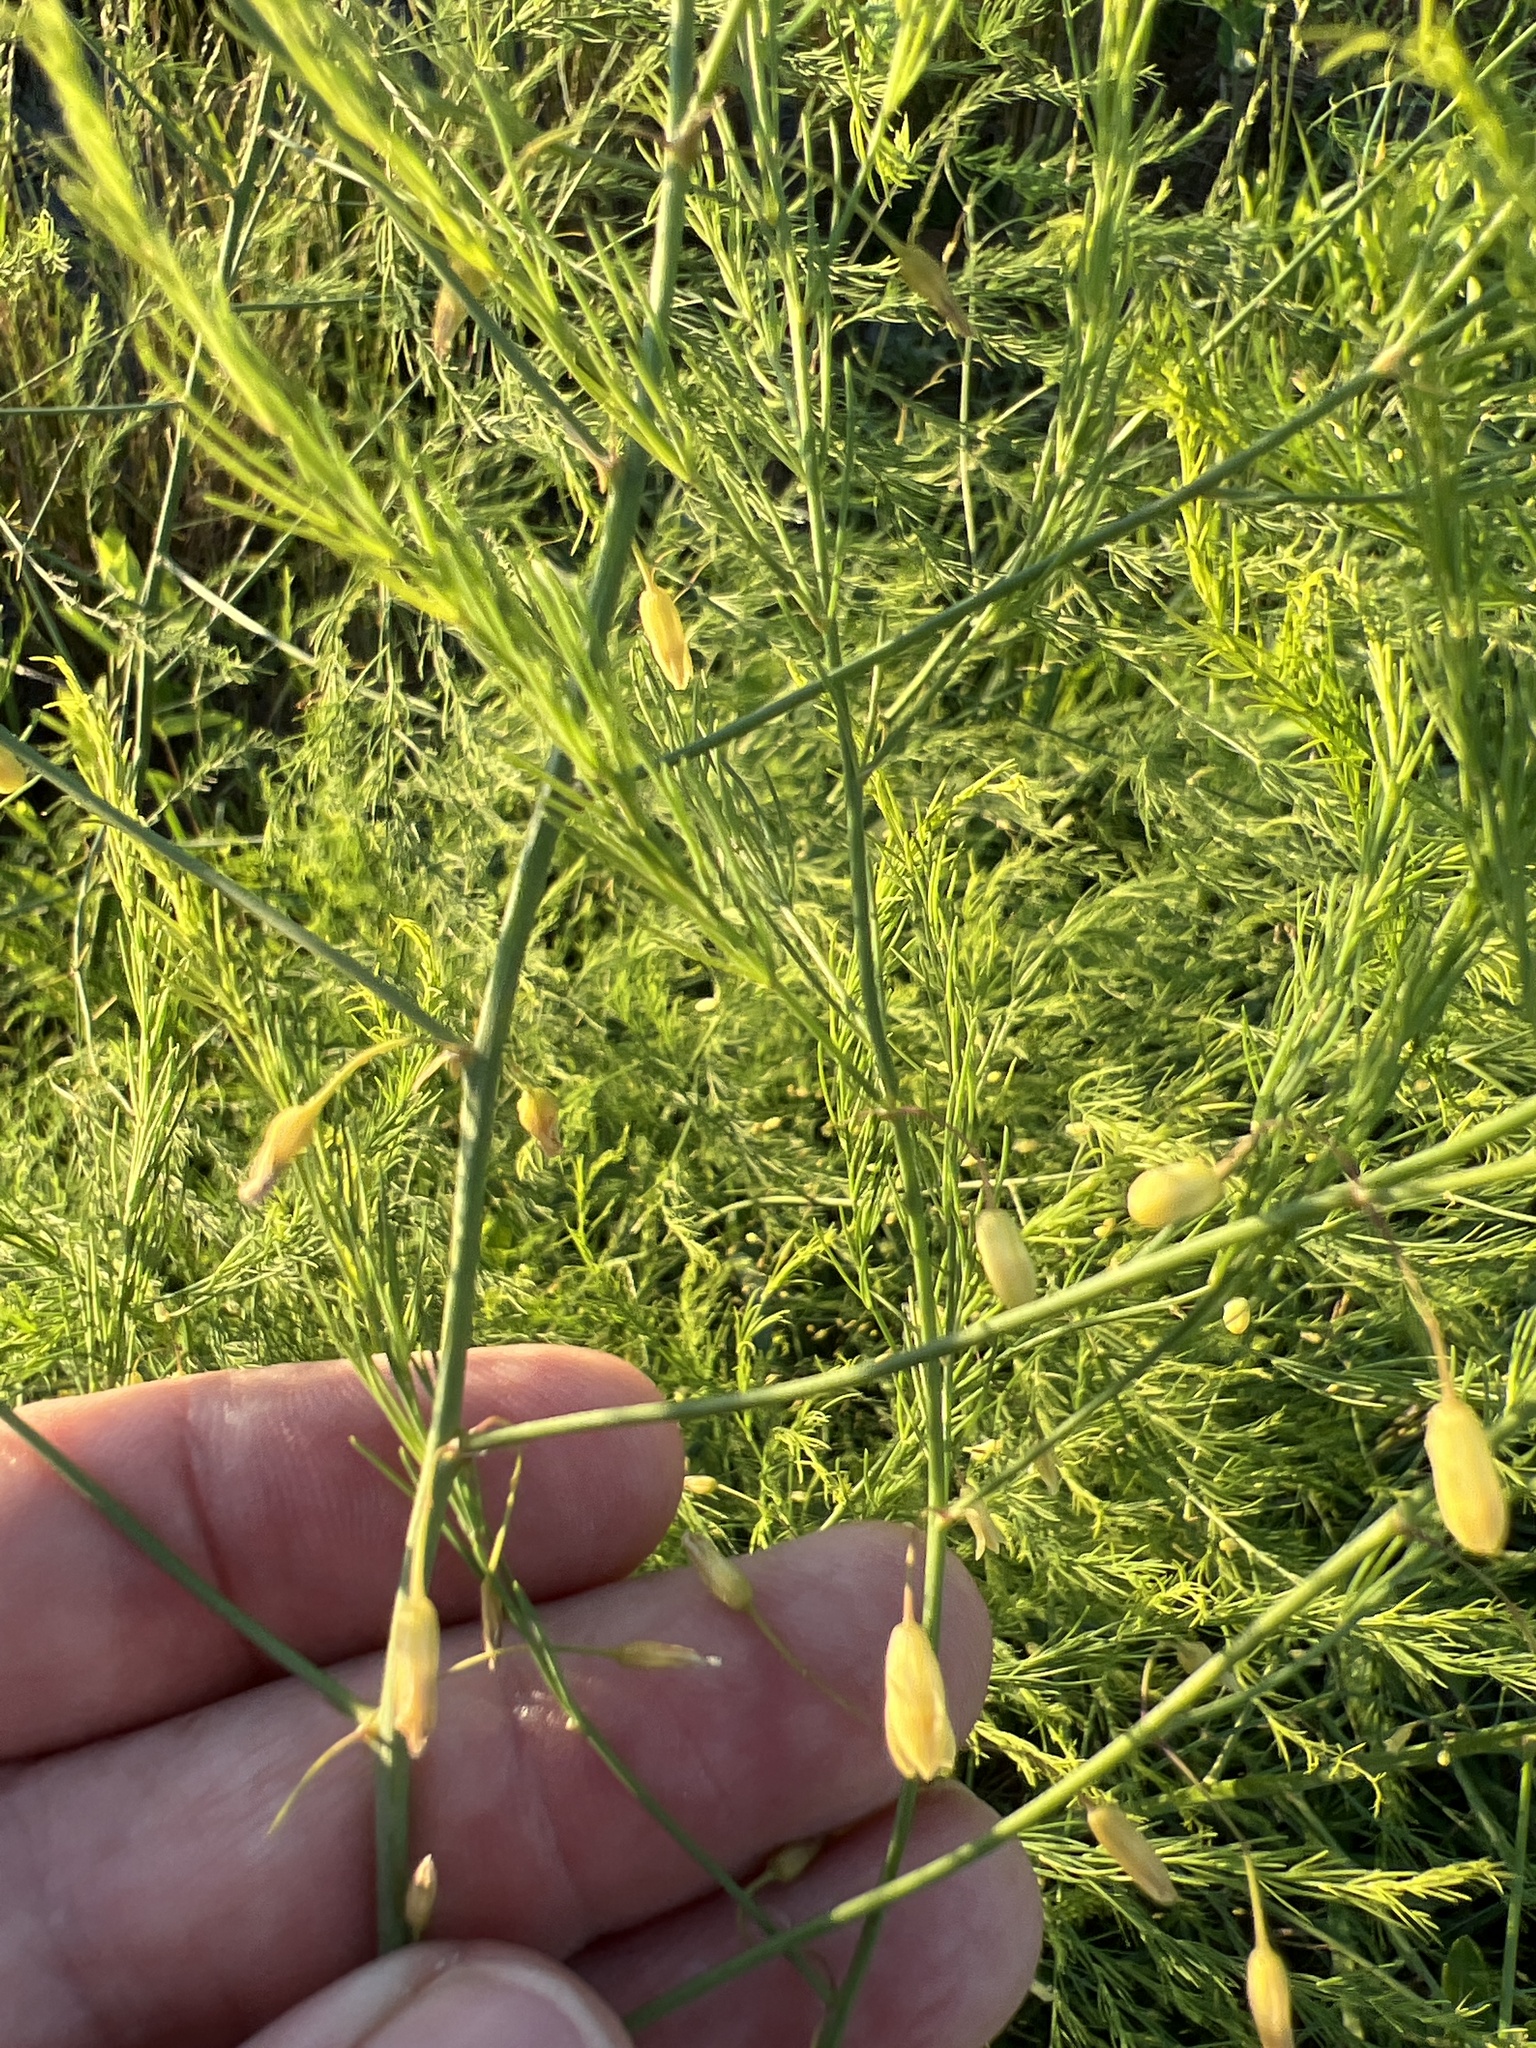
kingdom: Plantae
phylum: Tracheophyta
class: Liliopsida
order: Asparagales
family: Asparagaceae
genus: Asparagus
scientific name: Asparagus officinalis
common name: Garden asparagus
